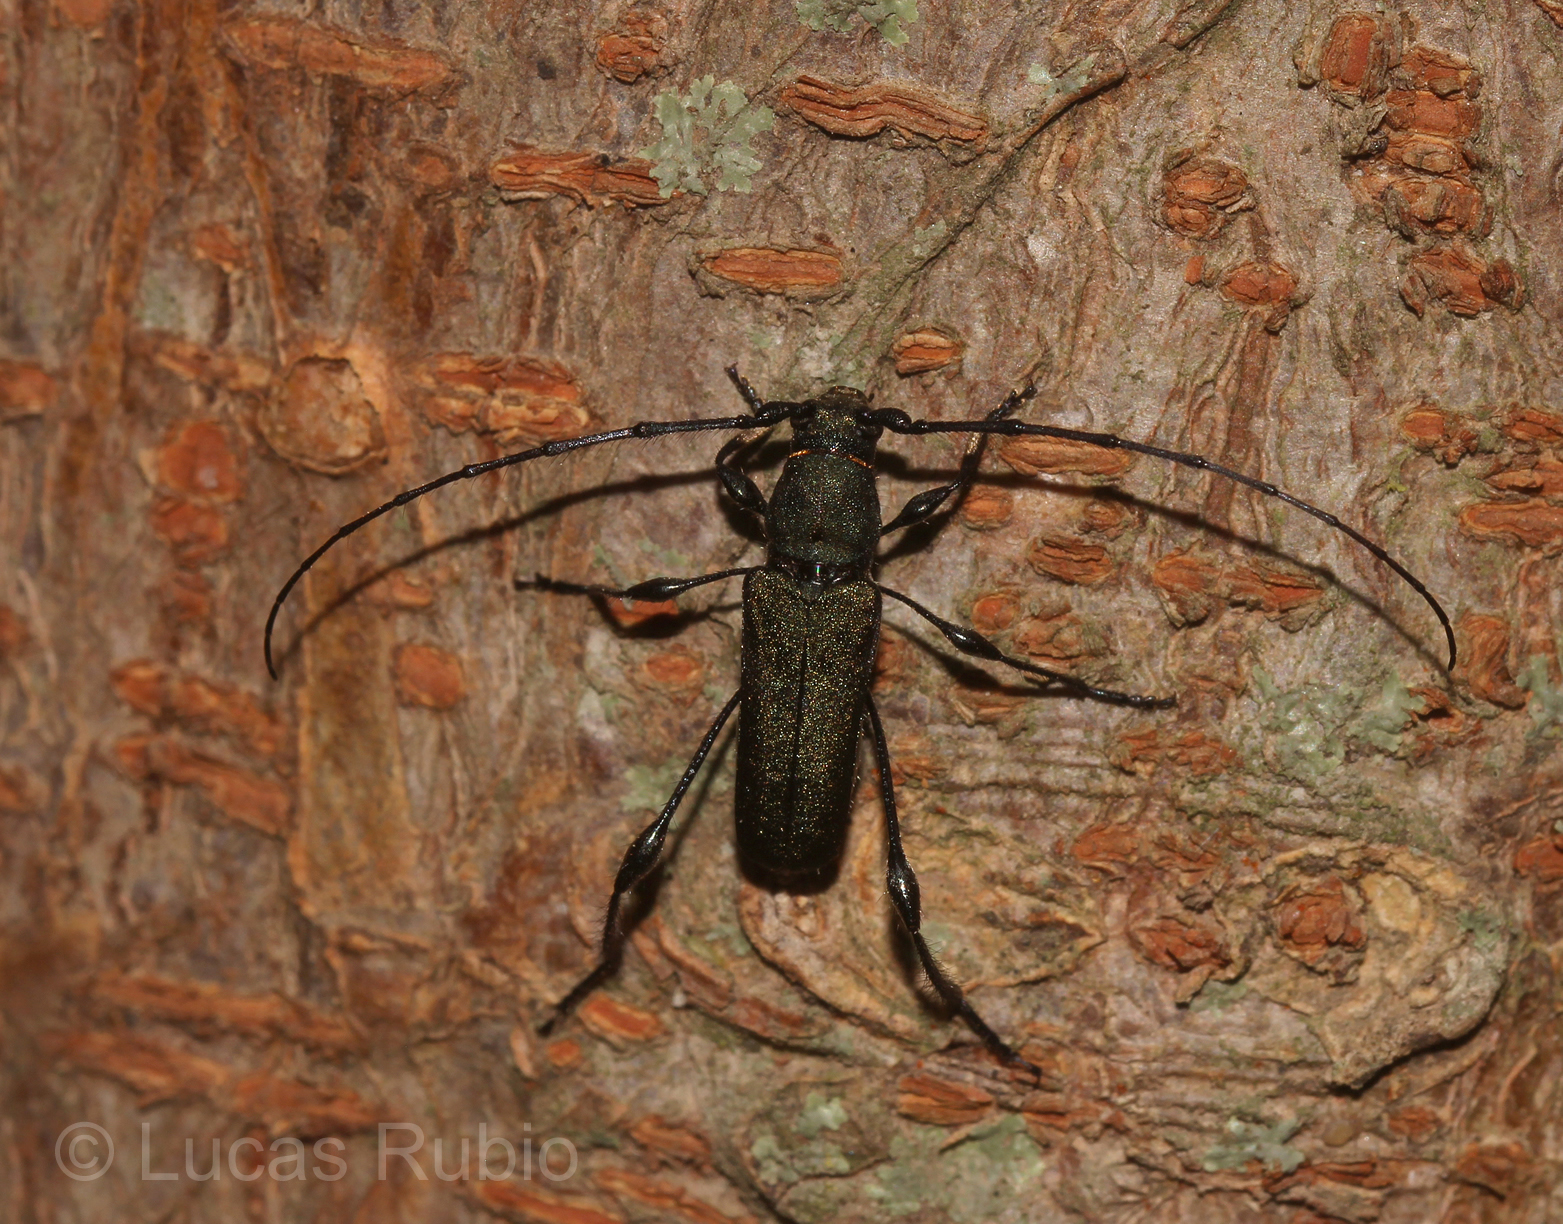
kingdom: Animalia
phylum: Arthropoda
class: Insecta
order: Coleoptera
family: Cerambycidae
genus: Ischionodonta
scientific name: Ischionodonta platensis
